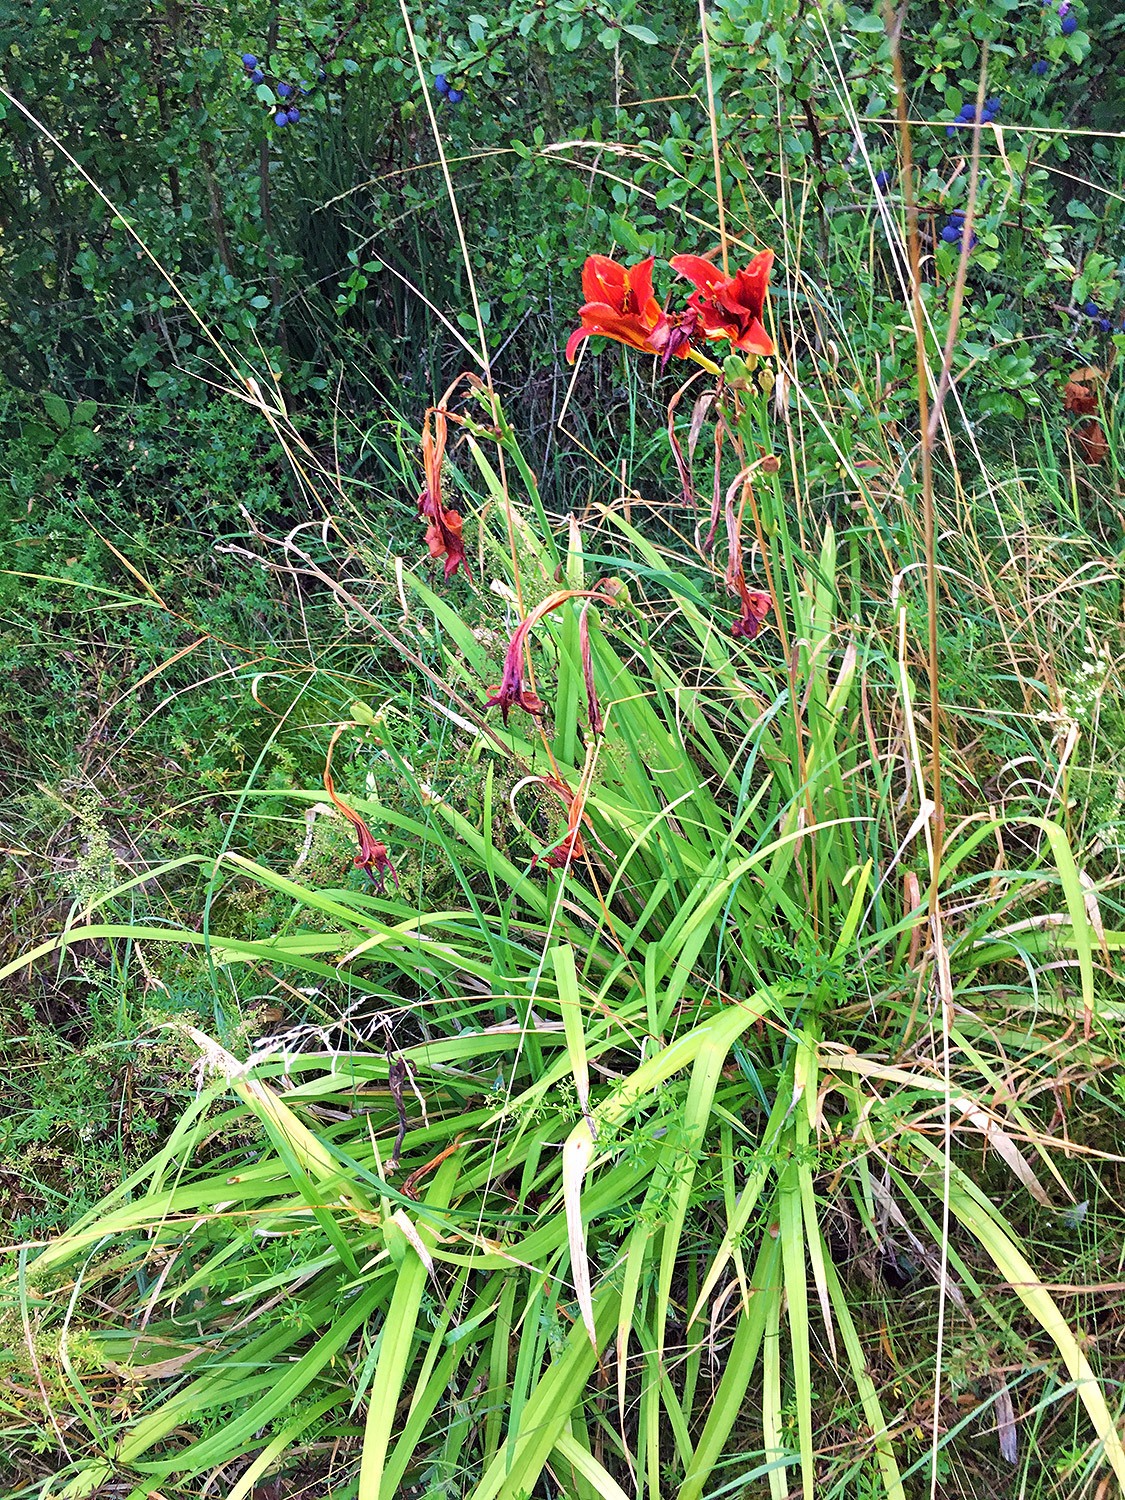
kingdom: Plantae
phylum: Tracheophyta
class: Liliopsida
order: Asparagales
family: Asphodelaceae
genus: Hemerocallis
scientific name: Hemerocallis fulva
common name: Orange day-lily
